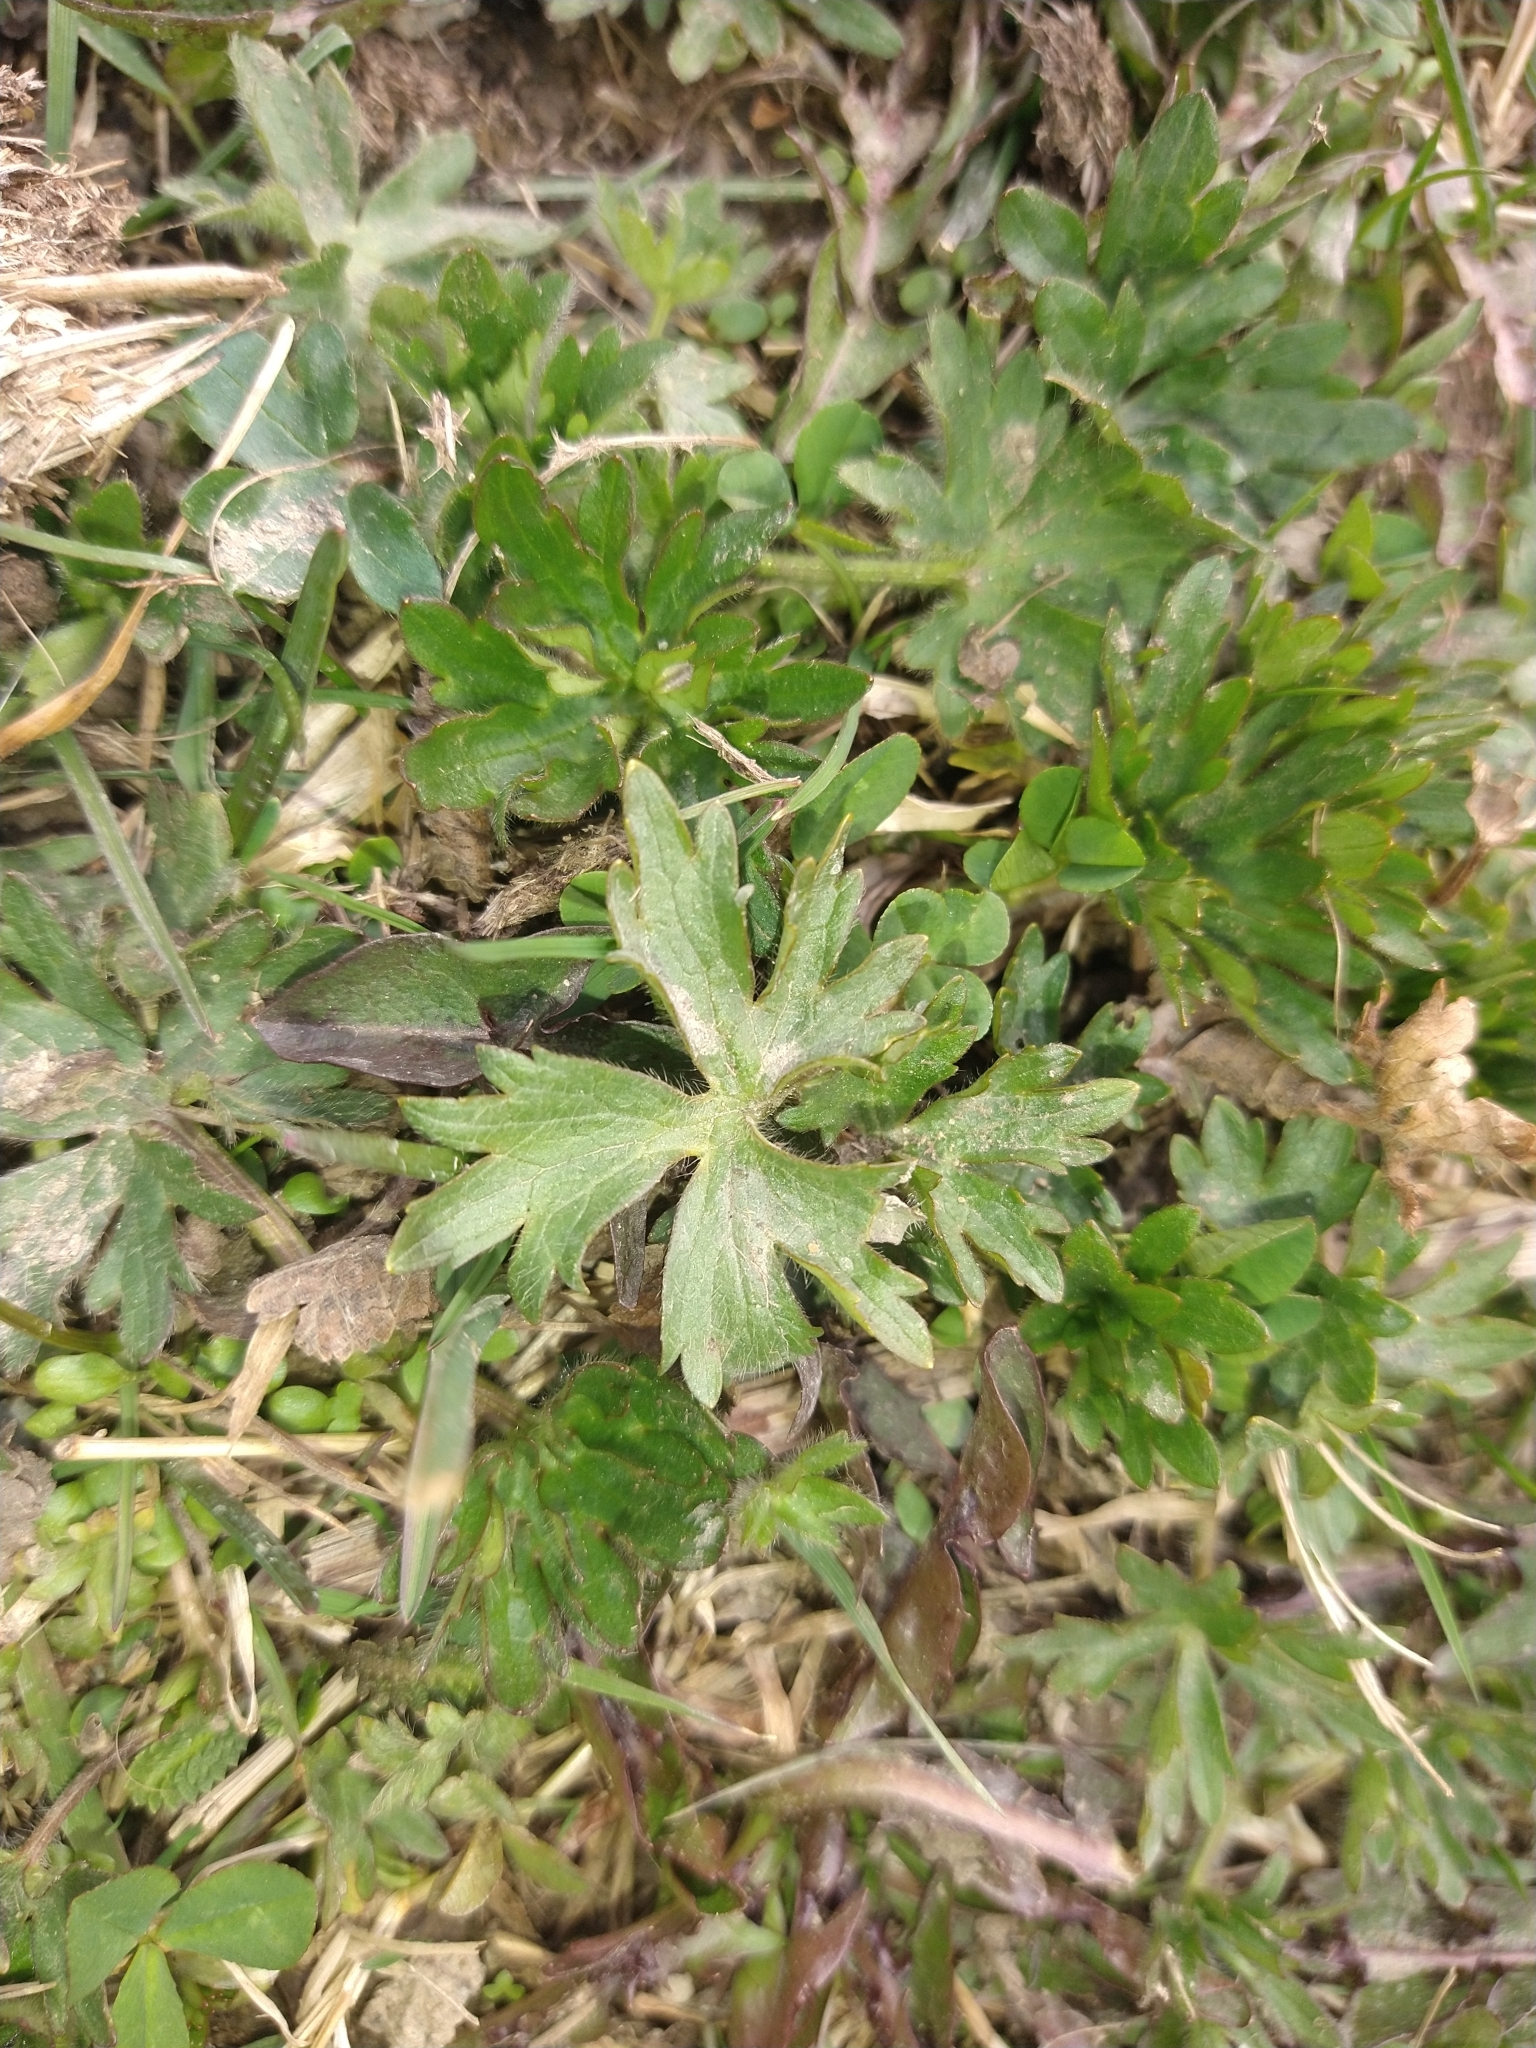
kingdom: Plantae
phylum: Tracheophyta
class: Magnoliopsida
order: Ranunculales
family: Ranunculaceae
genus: Ranunculus
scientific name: Ranunculus repens
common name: Creeping buttercup
